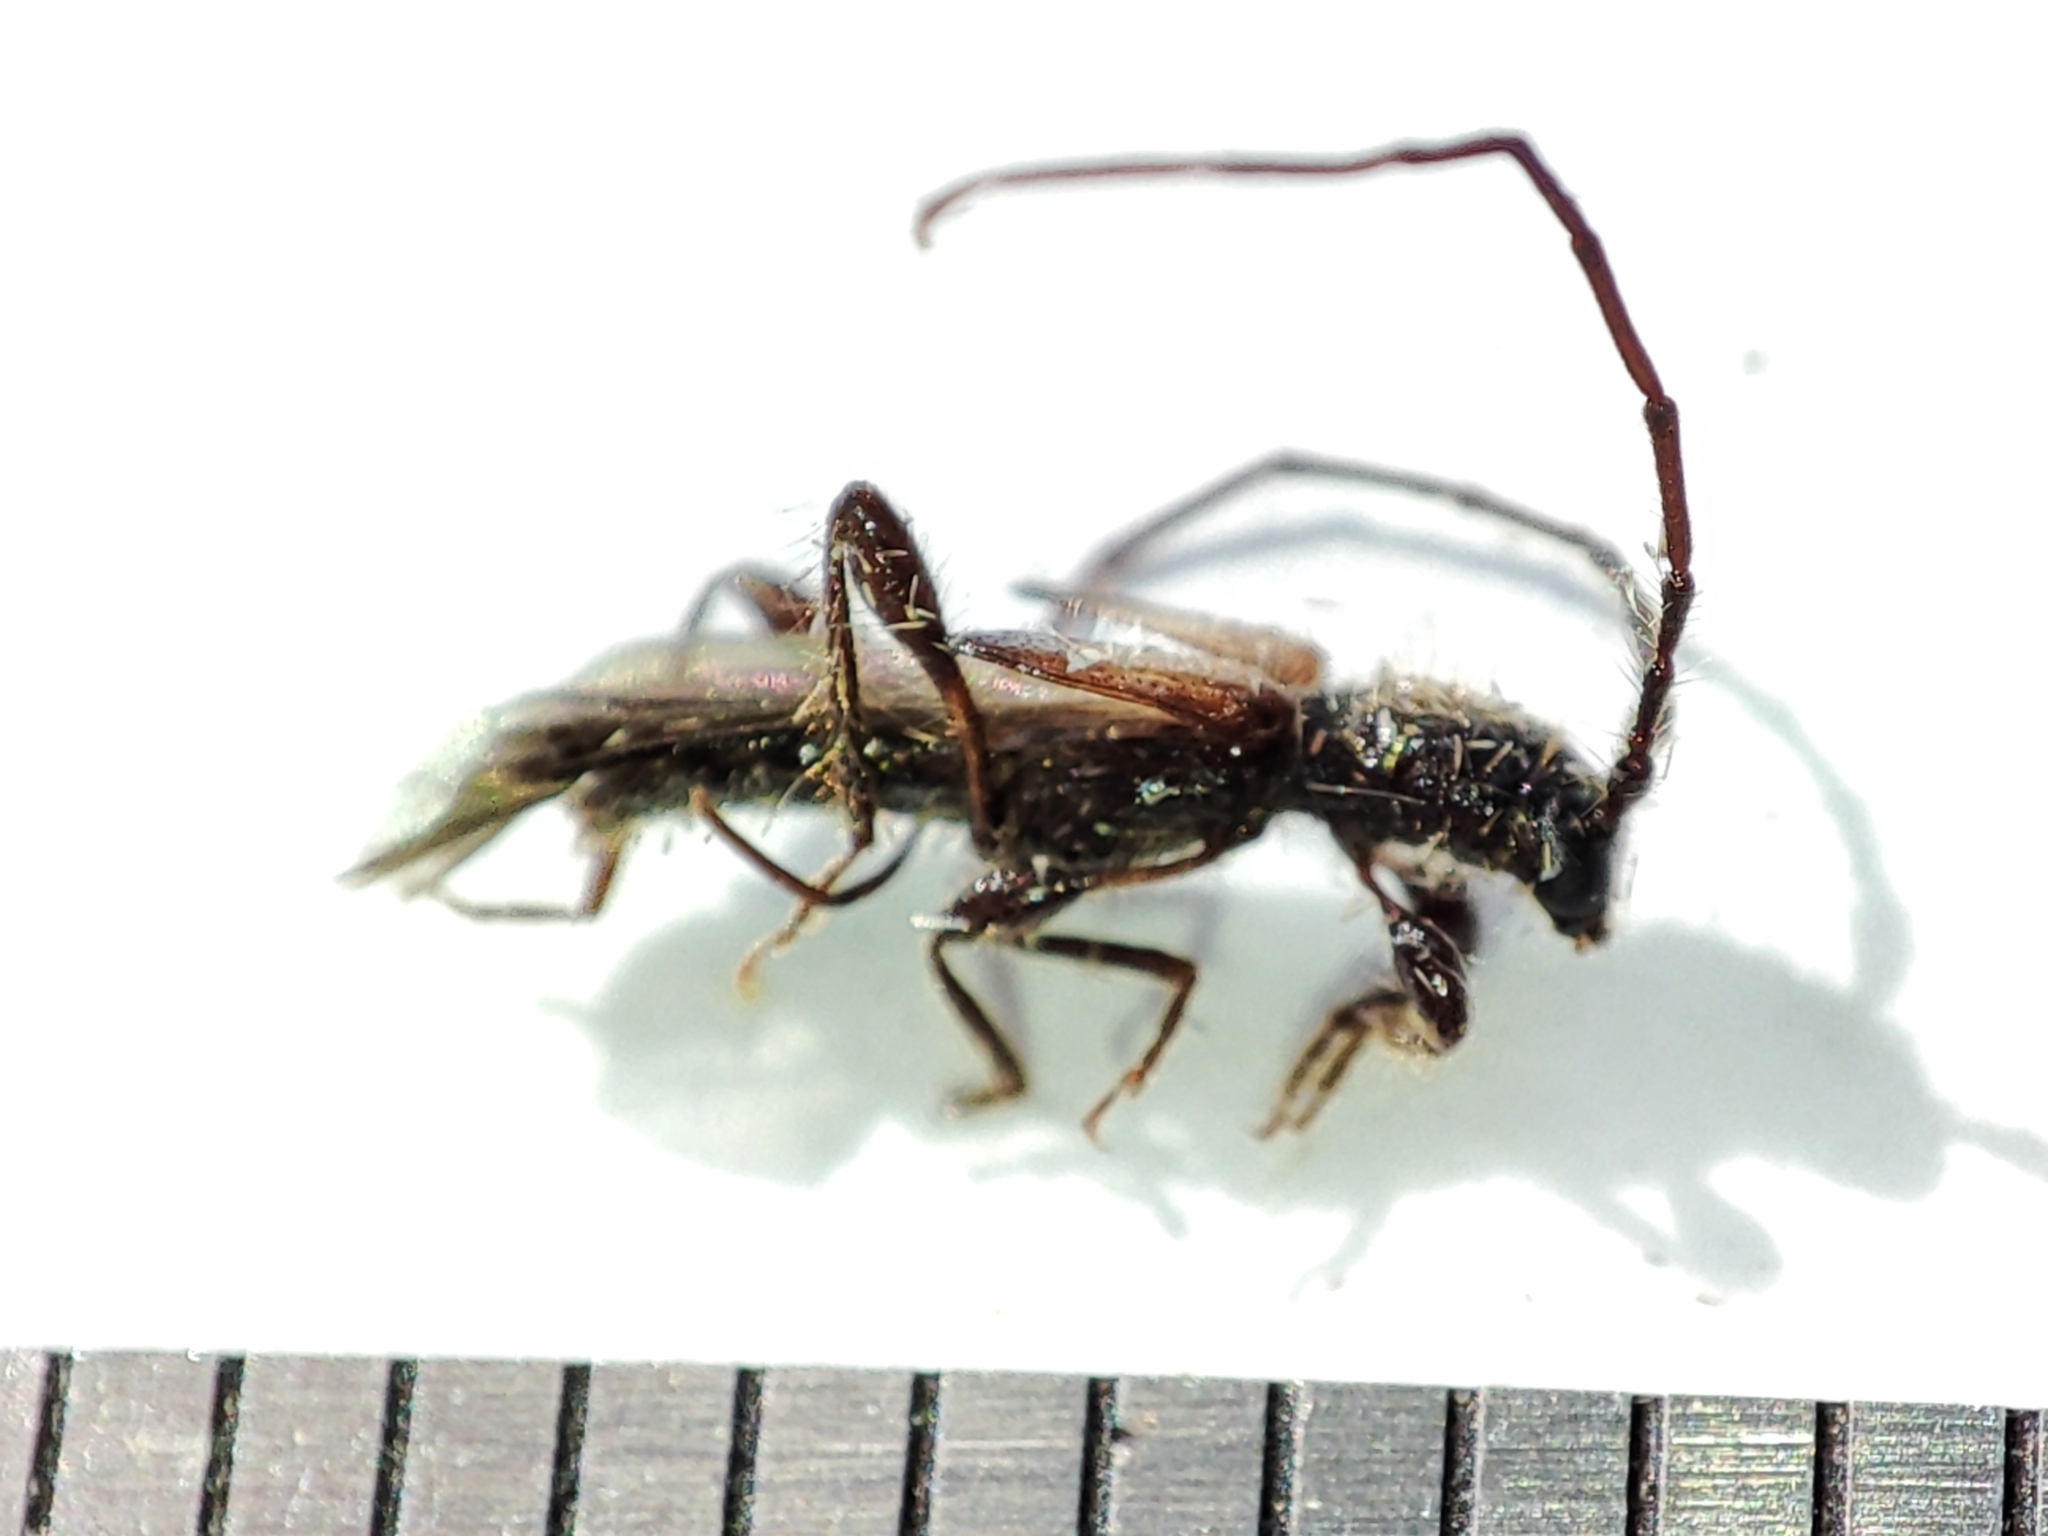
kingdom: Animalia
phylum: Arthropoda
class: Insecta
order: Coleoptera
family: Cerambycidae
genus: Molorchus
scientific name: Molorchus umbellatarum
